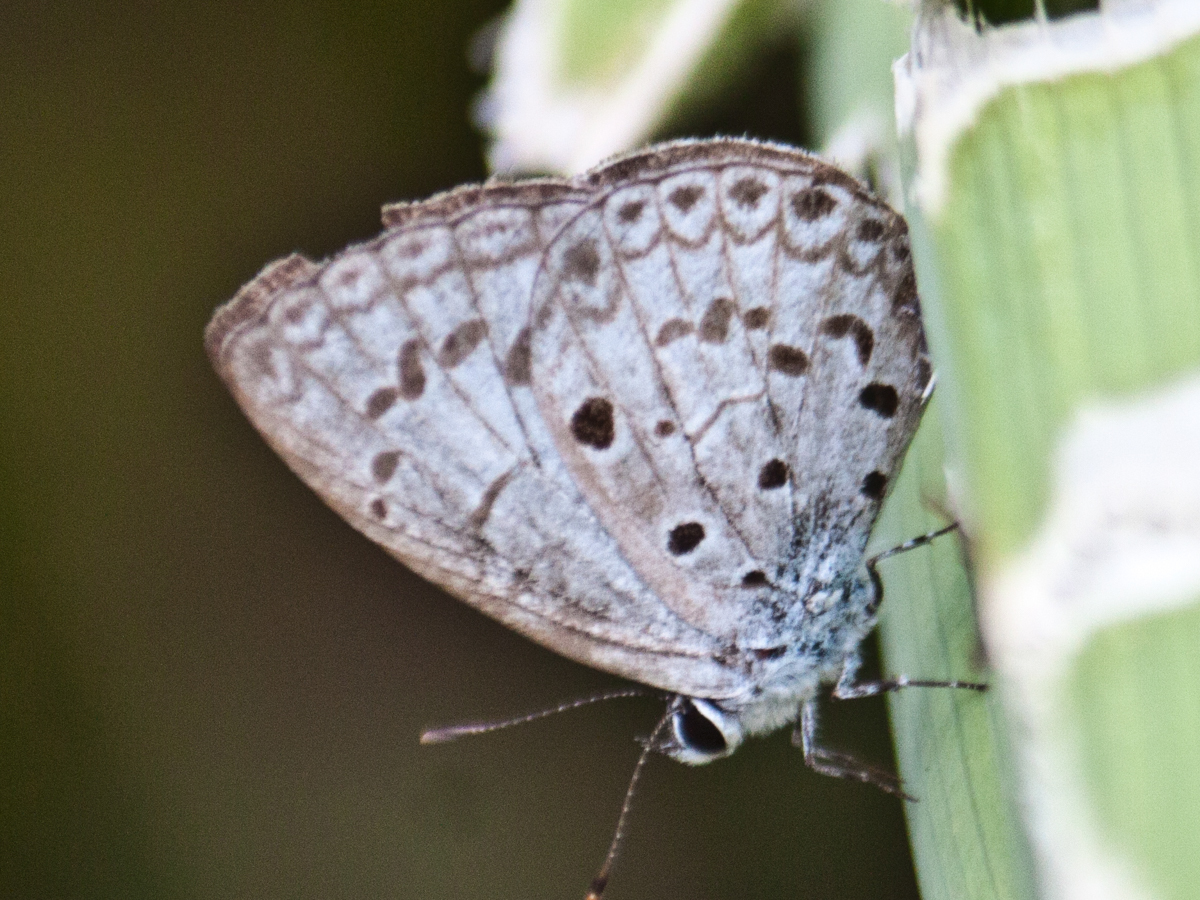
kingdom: Animalia
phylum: Arthropoda
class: Insecta
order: Lepidoptera
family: Lycaenidae
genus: Acytolepis
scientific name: Acytolepis puspa
